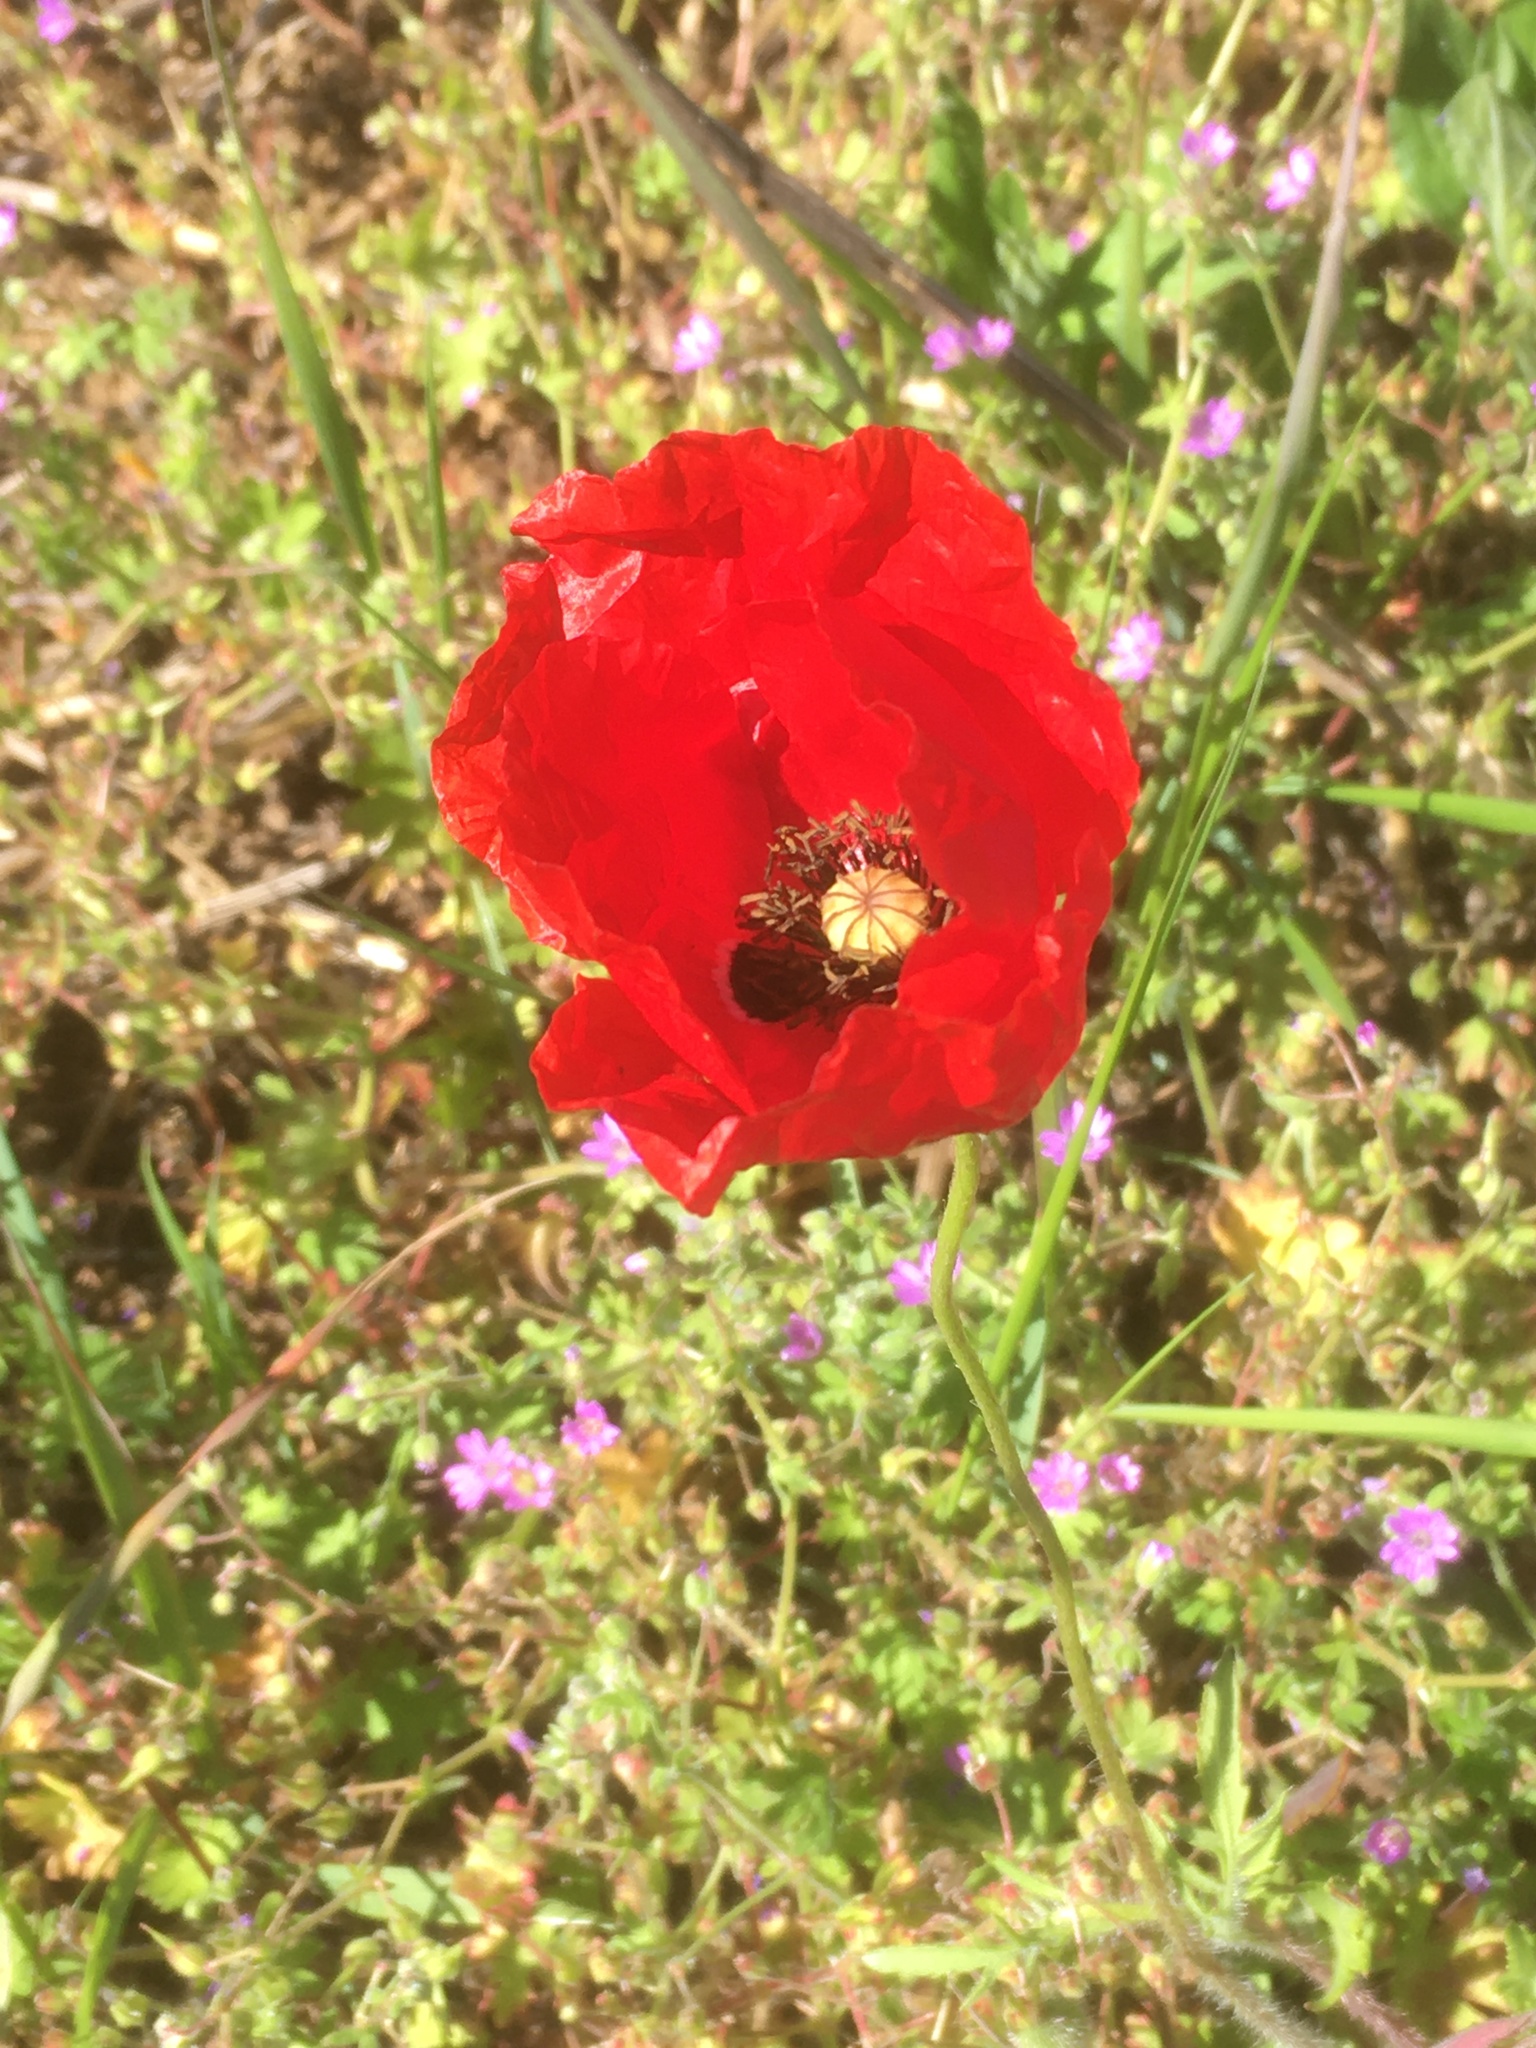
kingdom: Plantae
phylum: Tracheophyta
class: Magnoliopsida
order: Ranunculales
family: Papaveraceae
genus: Papaver
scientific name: Papaver rhoeas
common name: Corn poppy
